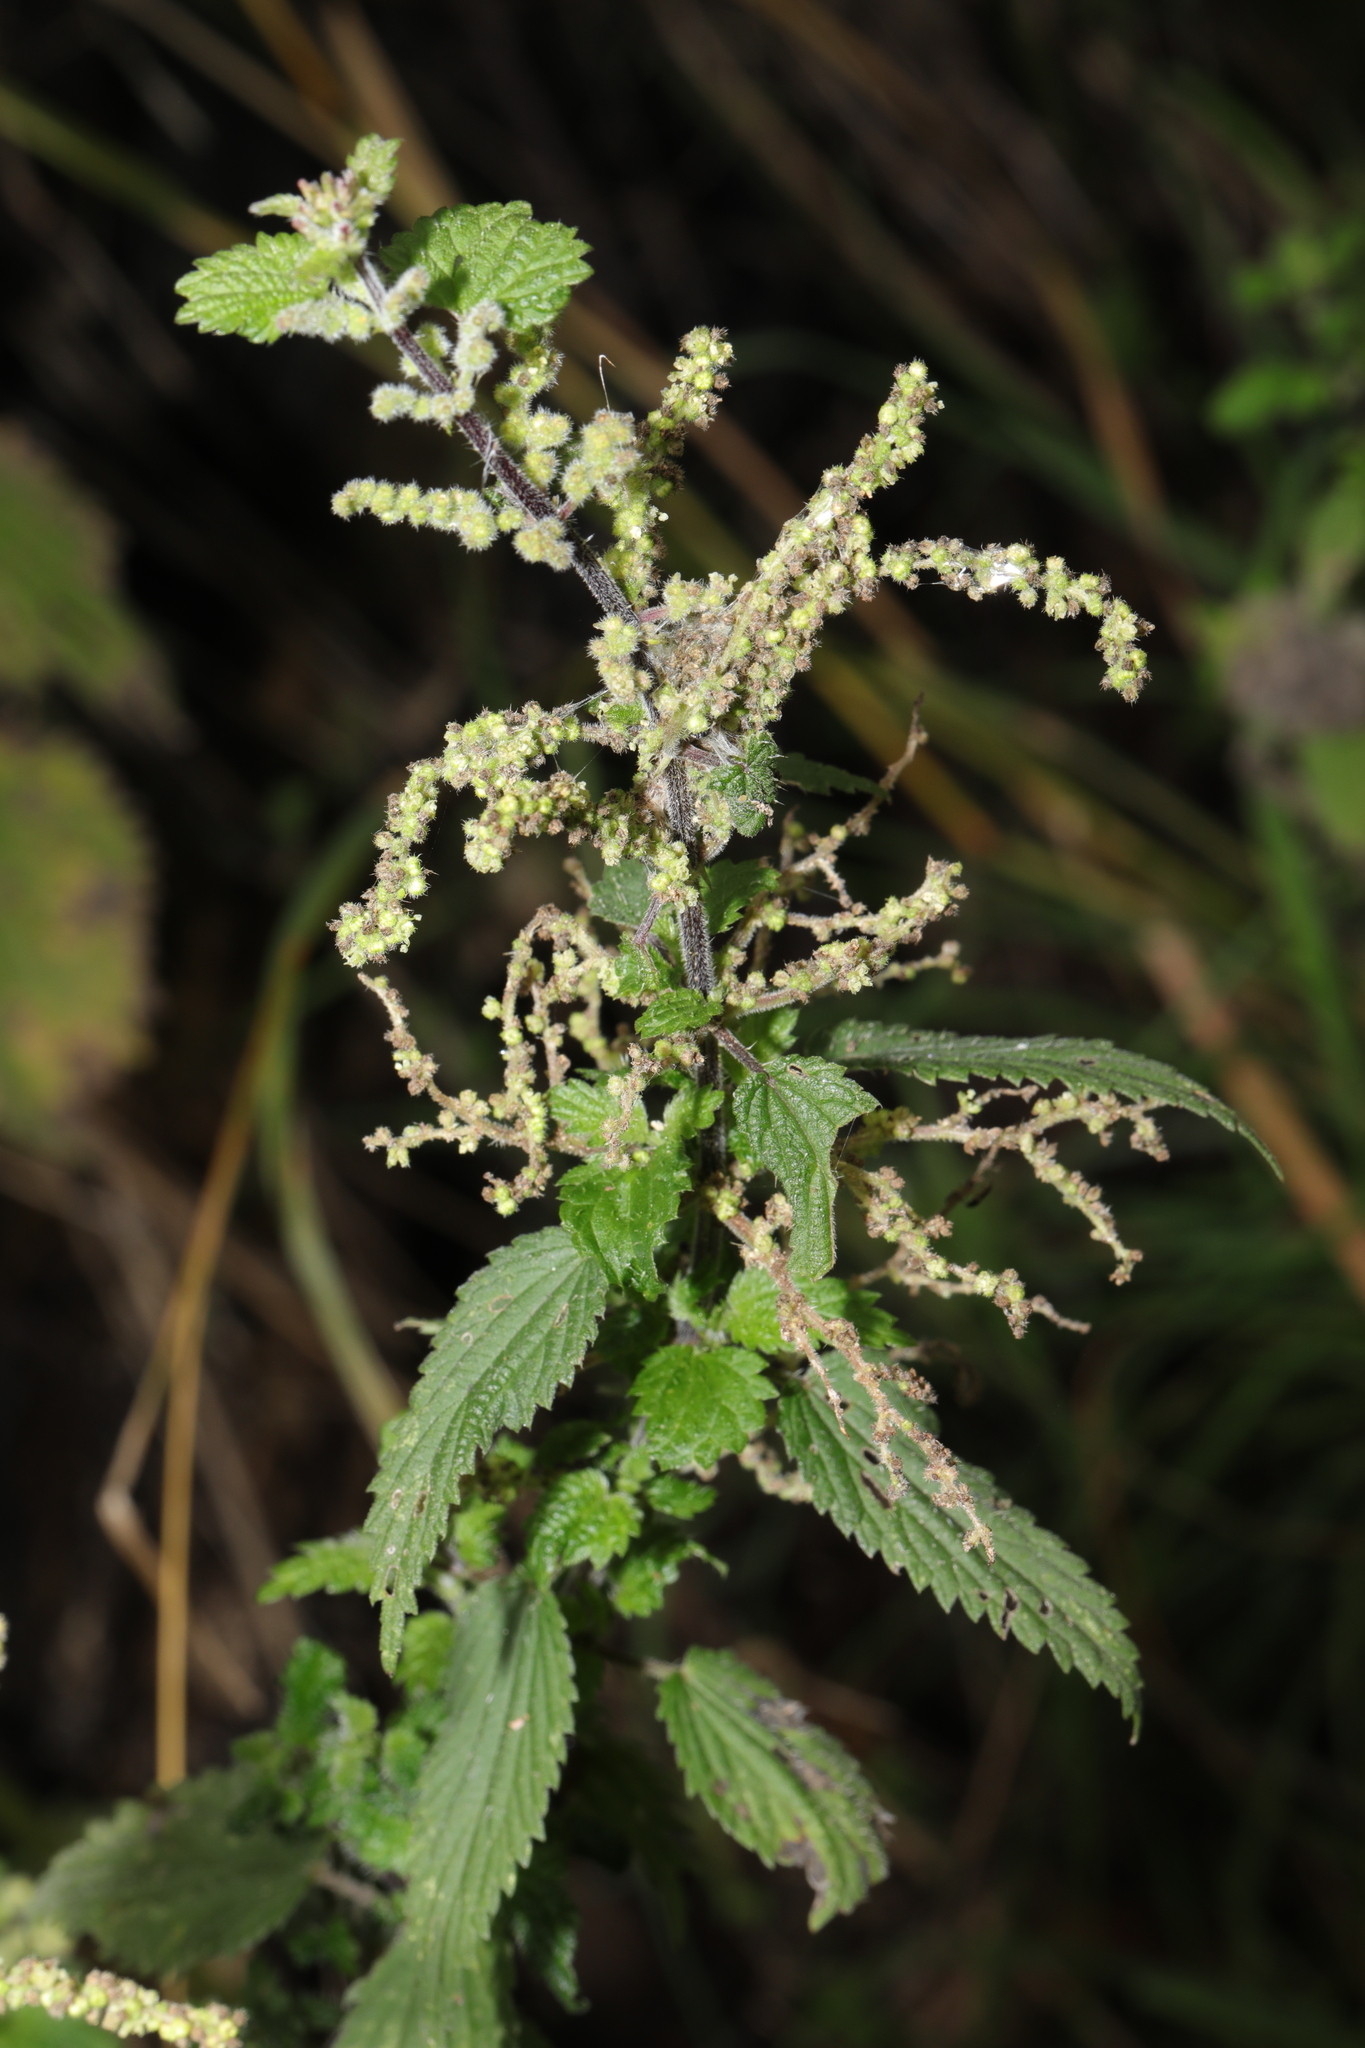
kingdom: Plantae
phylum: Tracheophyta
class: Magnoliopsida
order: Rosales
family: Urticaceae
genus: Urtica
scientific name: Urtica dioica
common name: Common nettle
